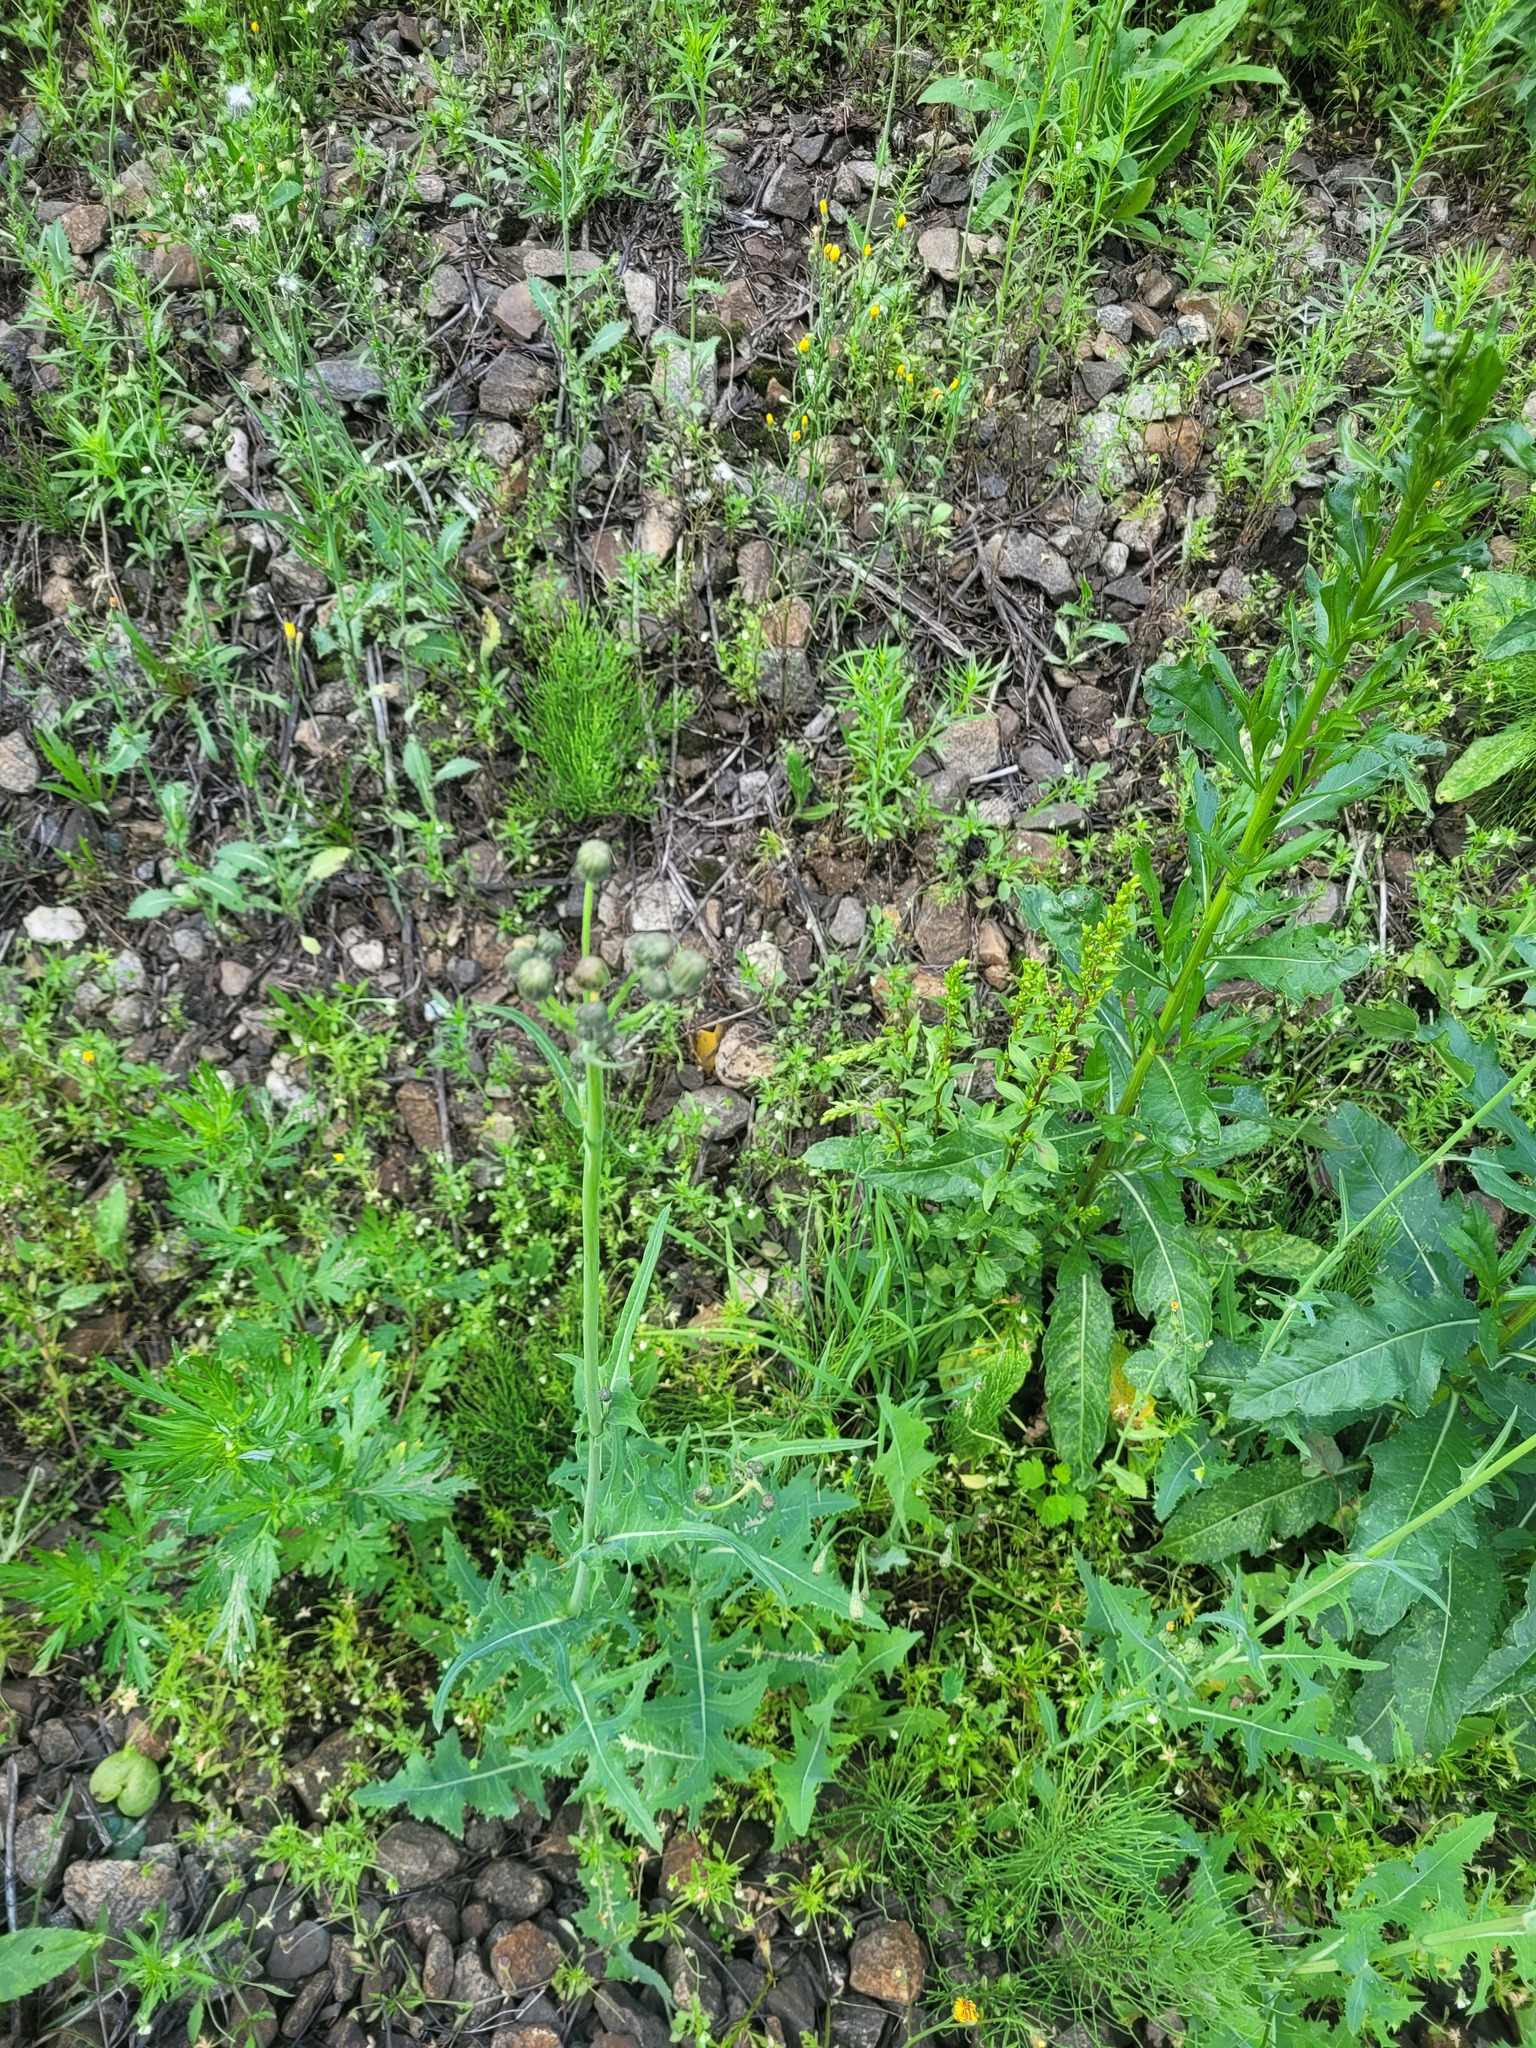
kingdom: Plantae
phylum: Tracheophyta
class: Magnoliopsida
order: Asterales
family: Asteraceae
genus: Solidago
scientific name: Solidago virgaurea
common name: Goldenrod
